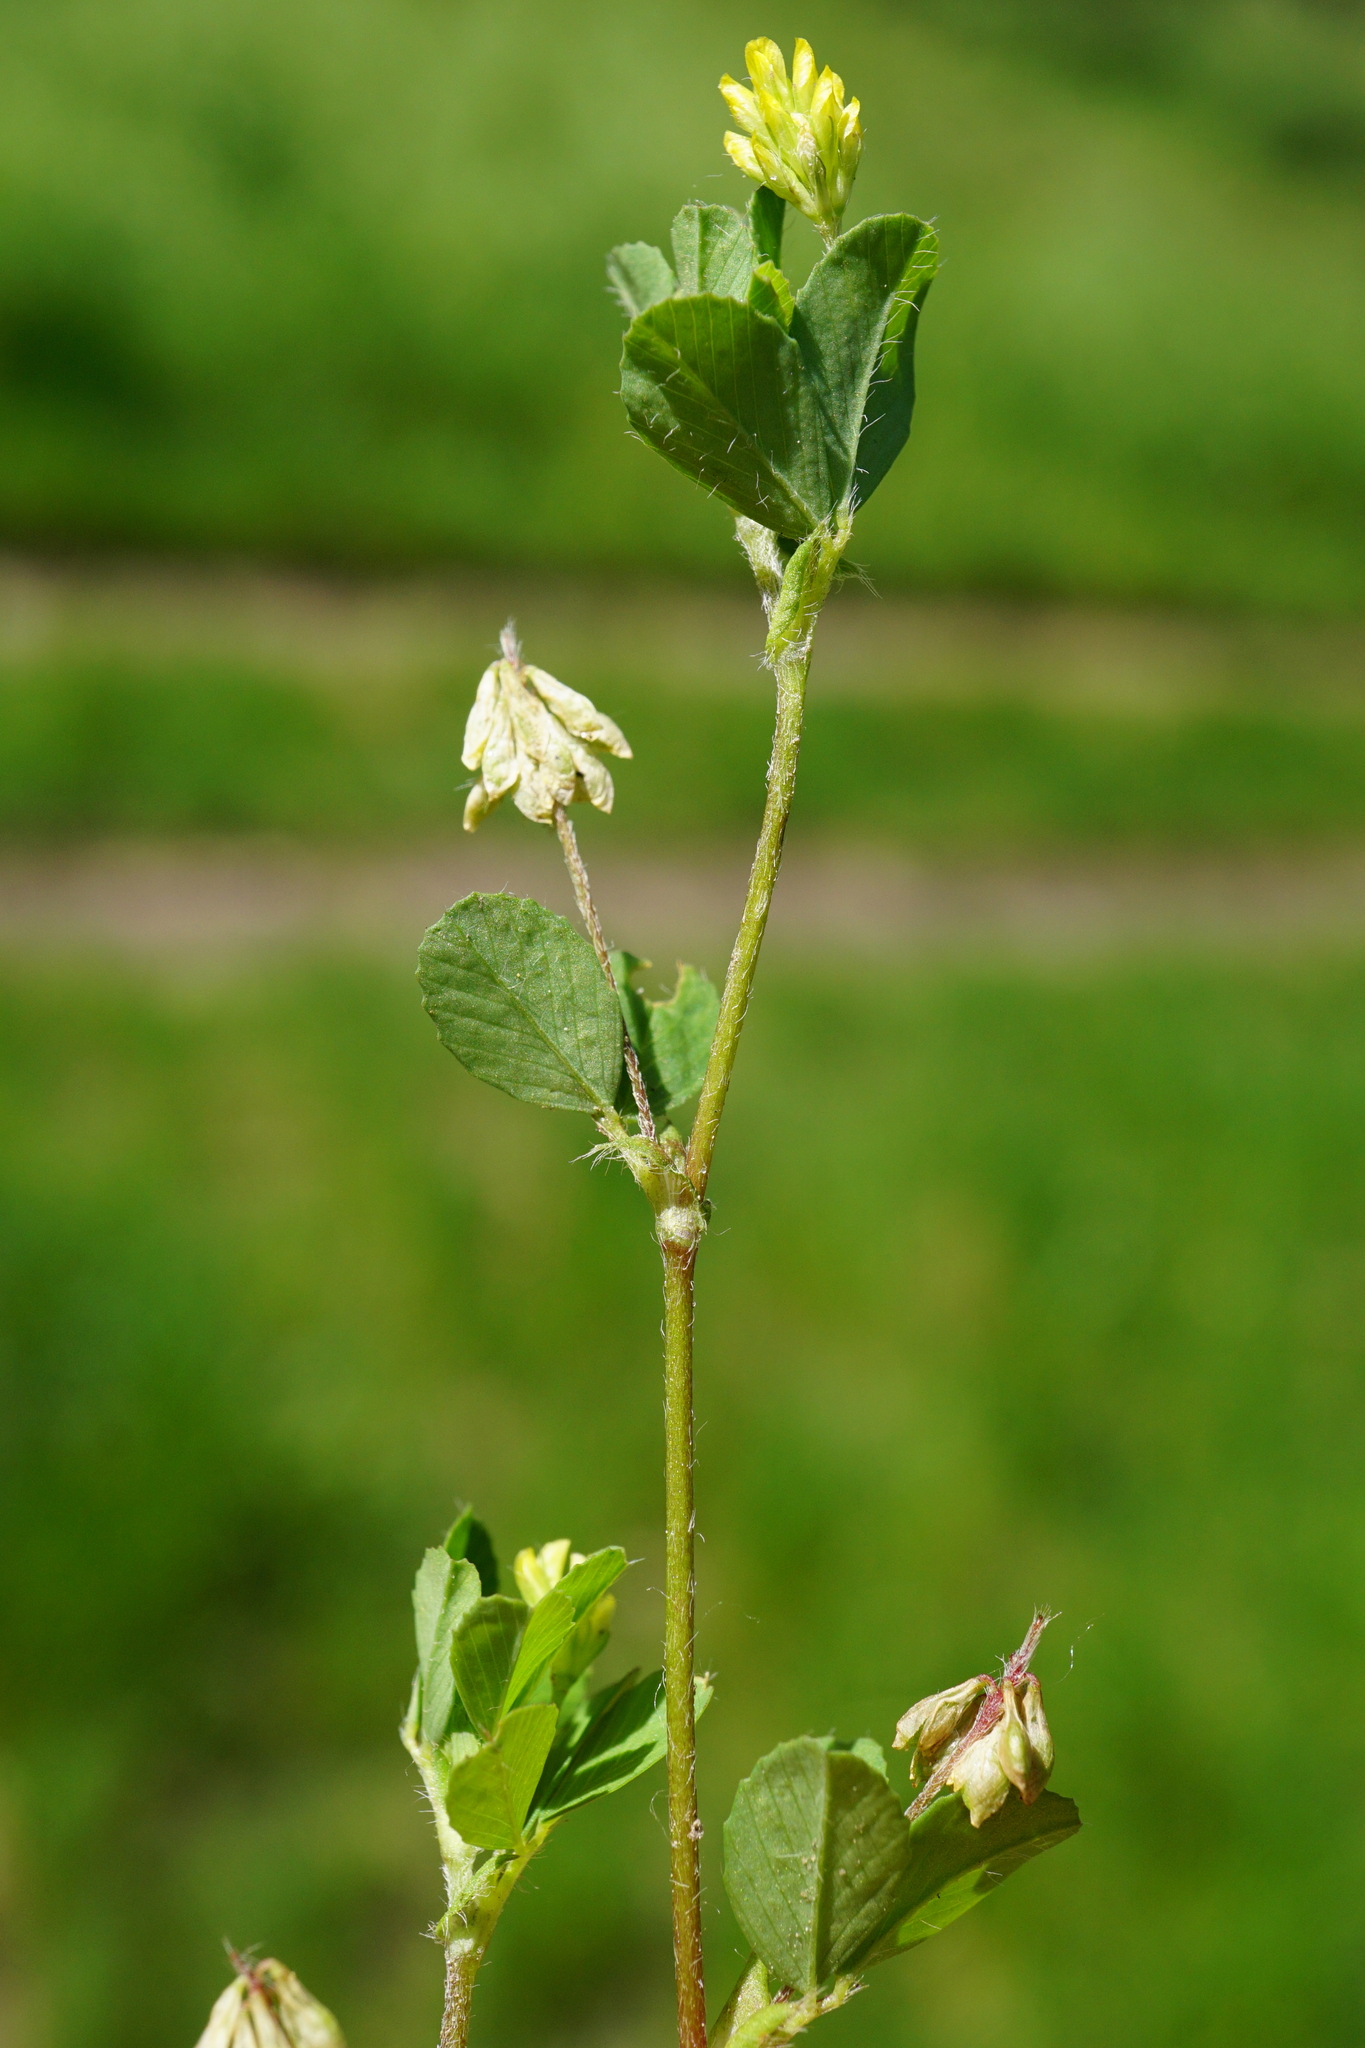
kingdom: Plantae
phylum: Tracheophyta
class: Magnoliopsida
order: Fabales
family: Fabaceae
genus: Trifolium
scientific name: Trifolium dubium
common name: Suckling clover
